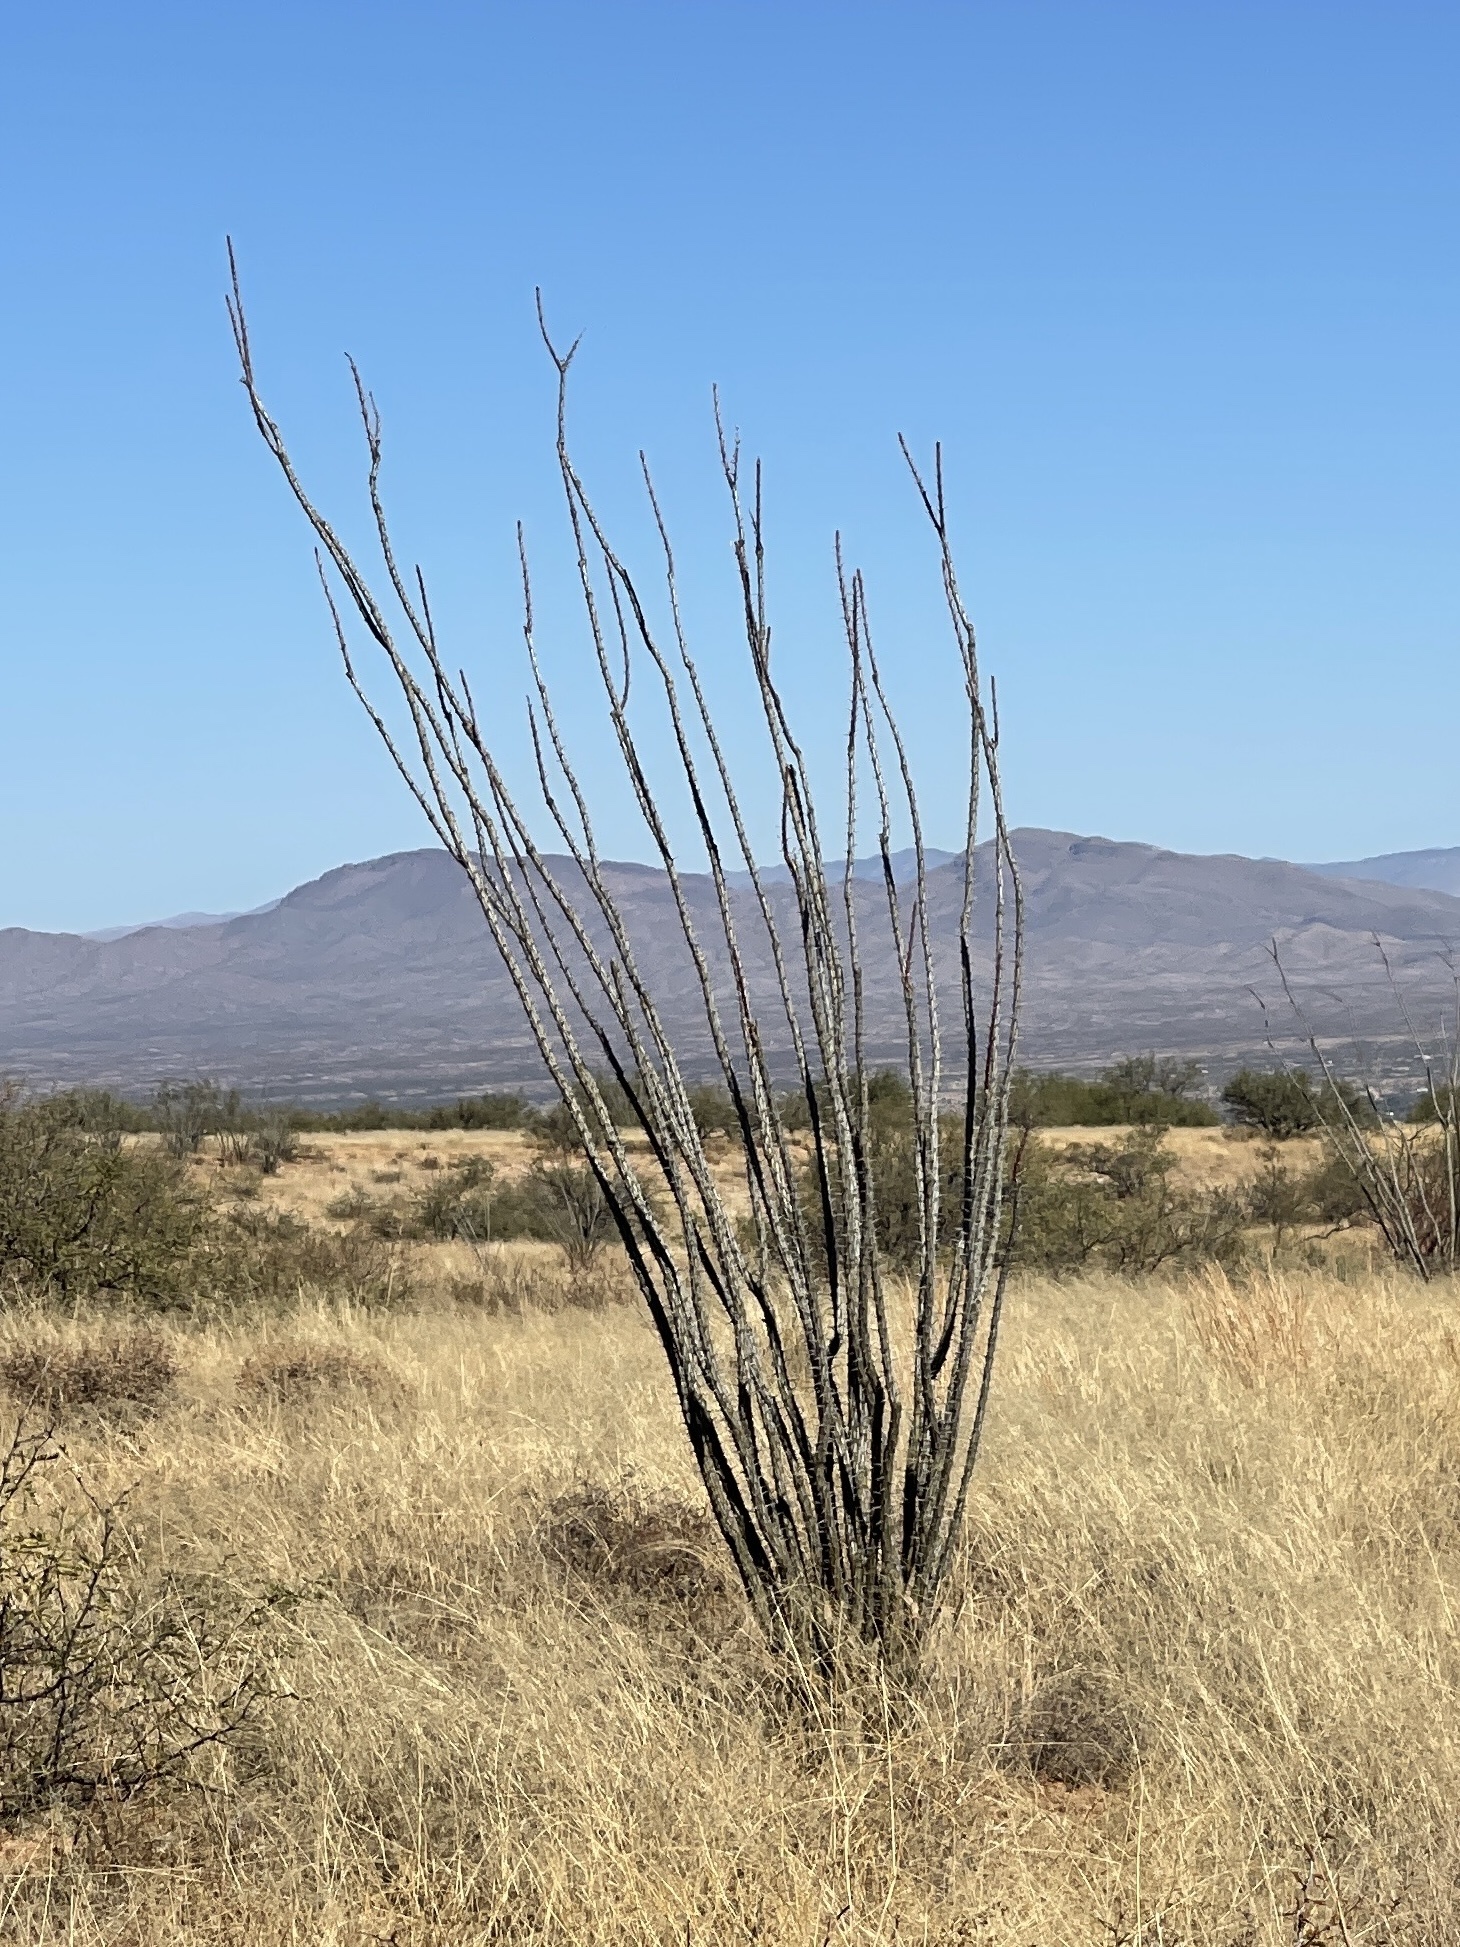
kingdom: Plantae
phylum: Tracheophyta
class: Magnoliopsida
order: Ericales
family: Fouquieriaceae
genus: Fouquieria
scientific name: Fouquieria splendens
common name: Vine-cactus
